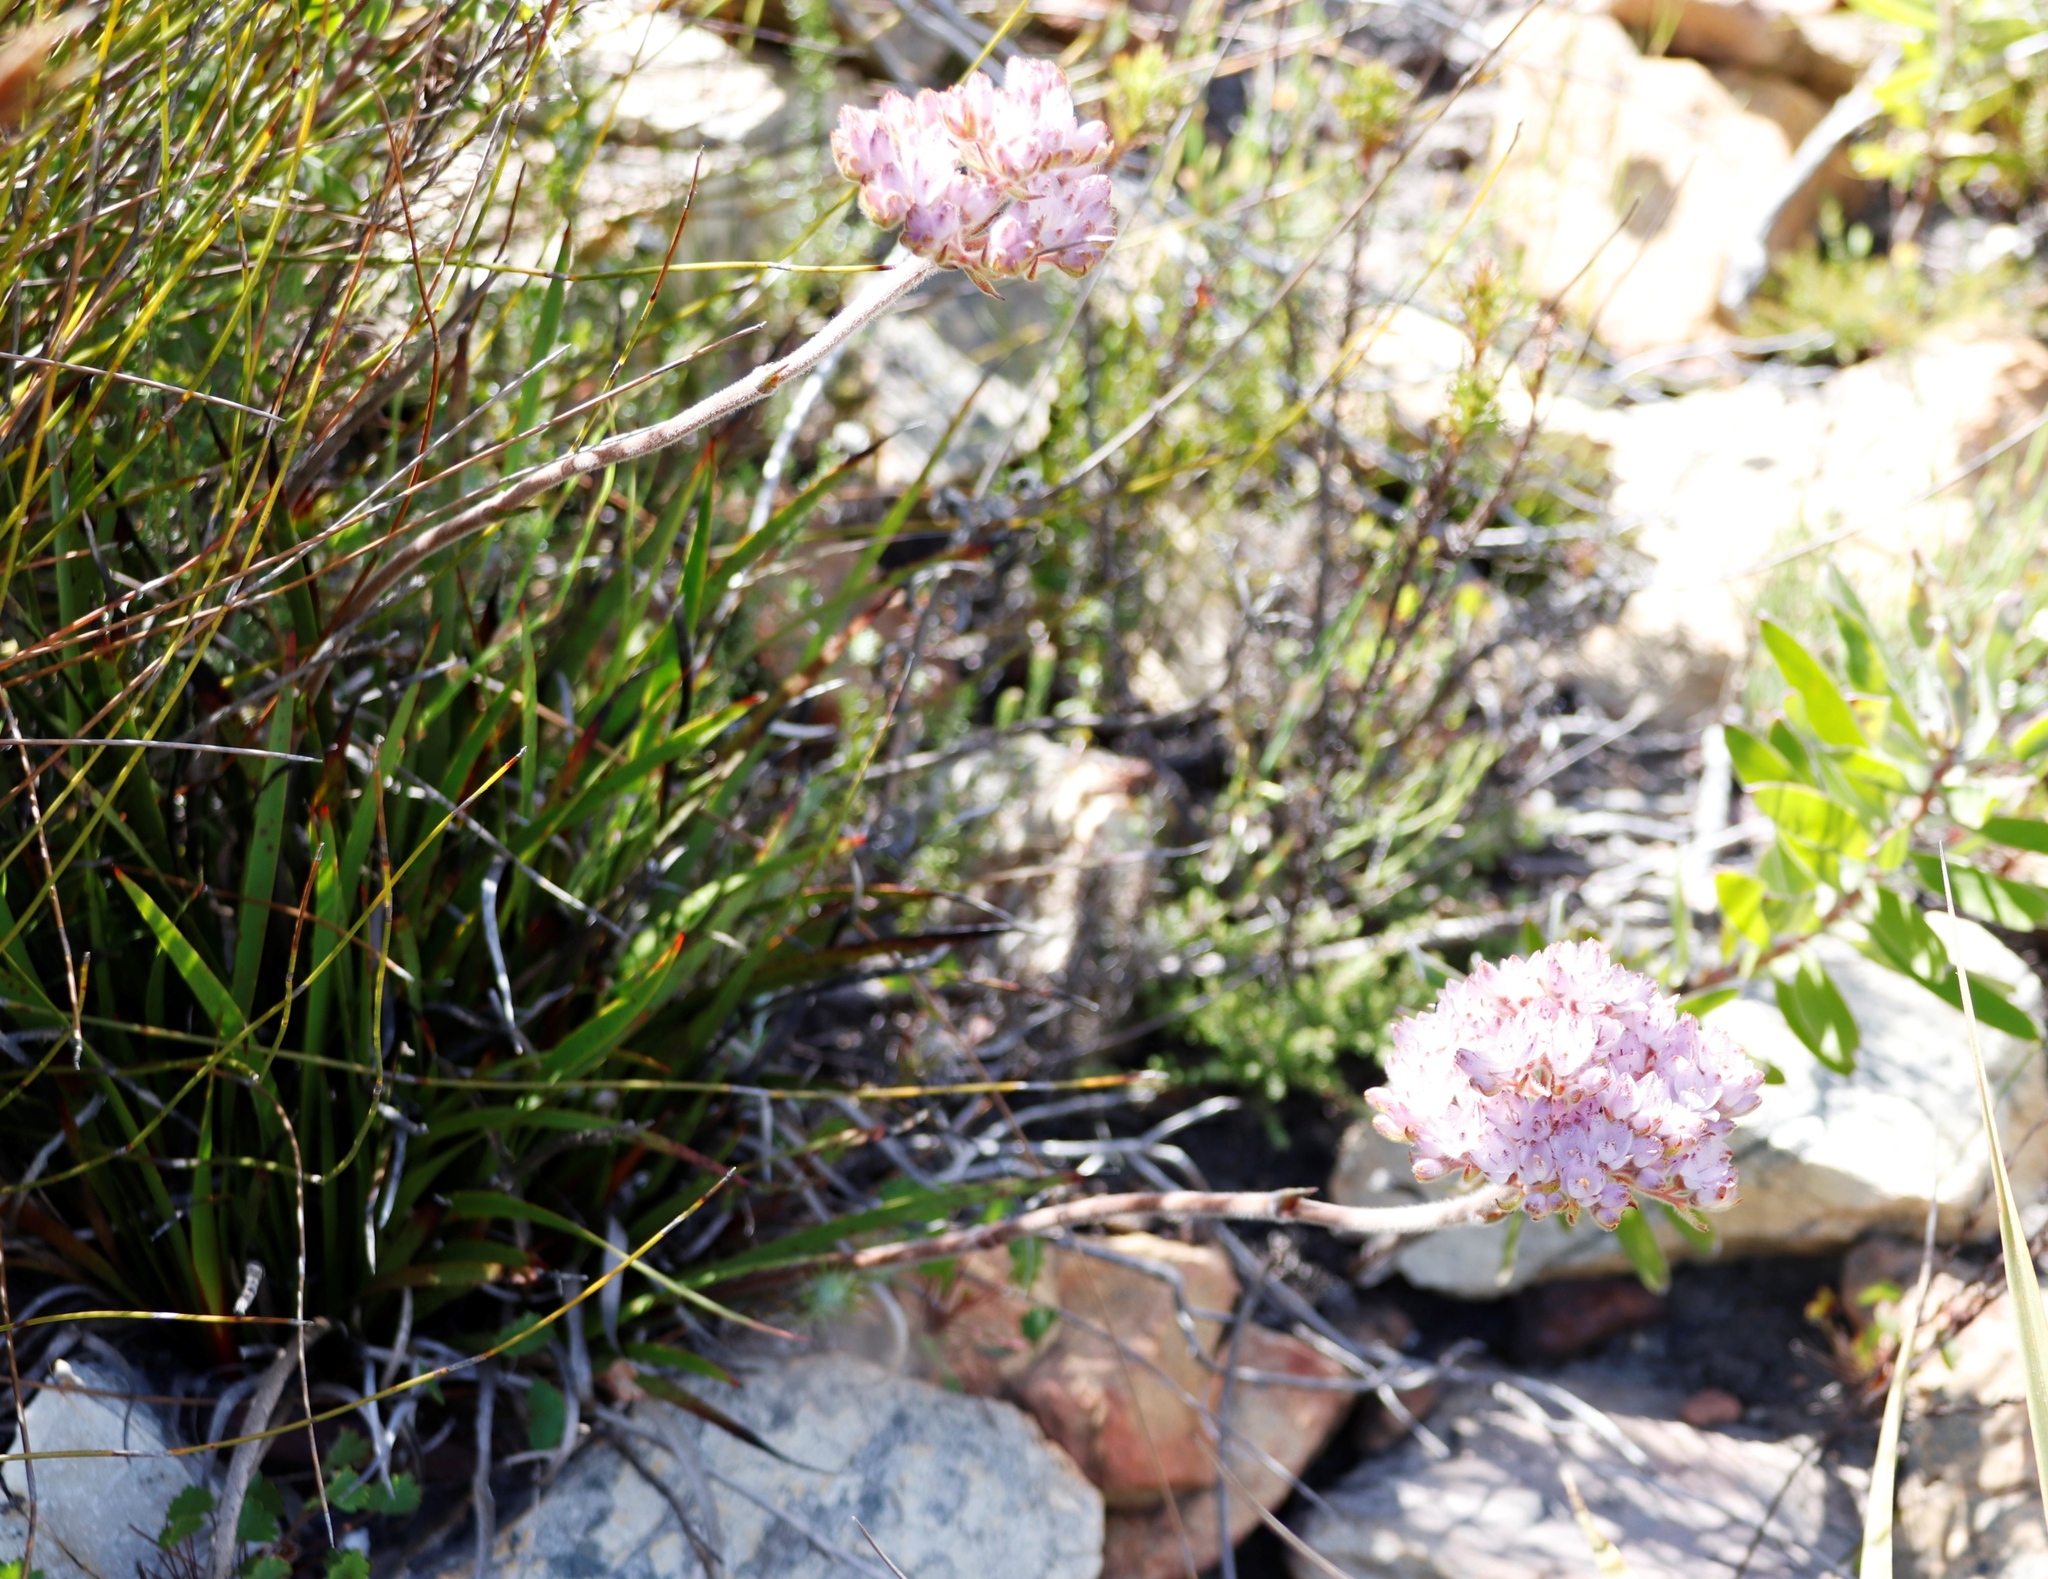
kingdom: Plantae
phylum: Tracheophyta
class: Liliopsida
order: Commelinales
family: Haemodoraceae
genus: Dilatris
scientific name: Dilatris pillansii
